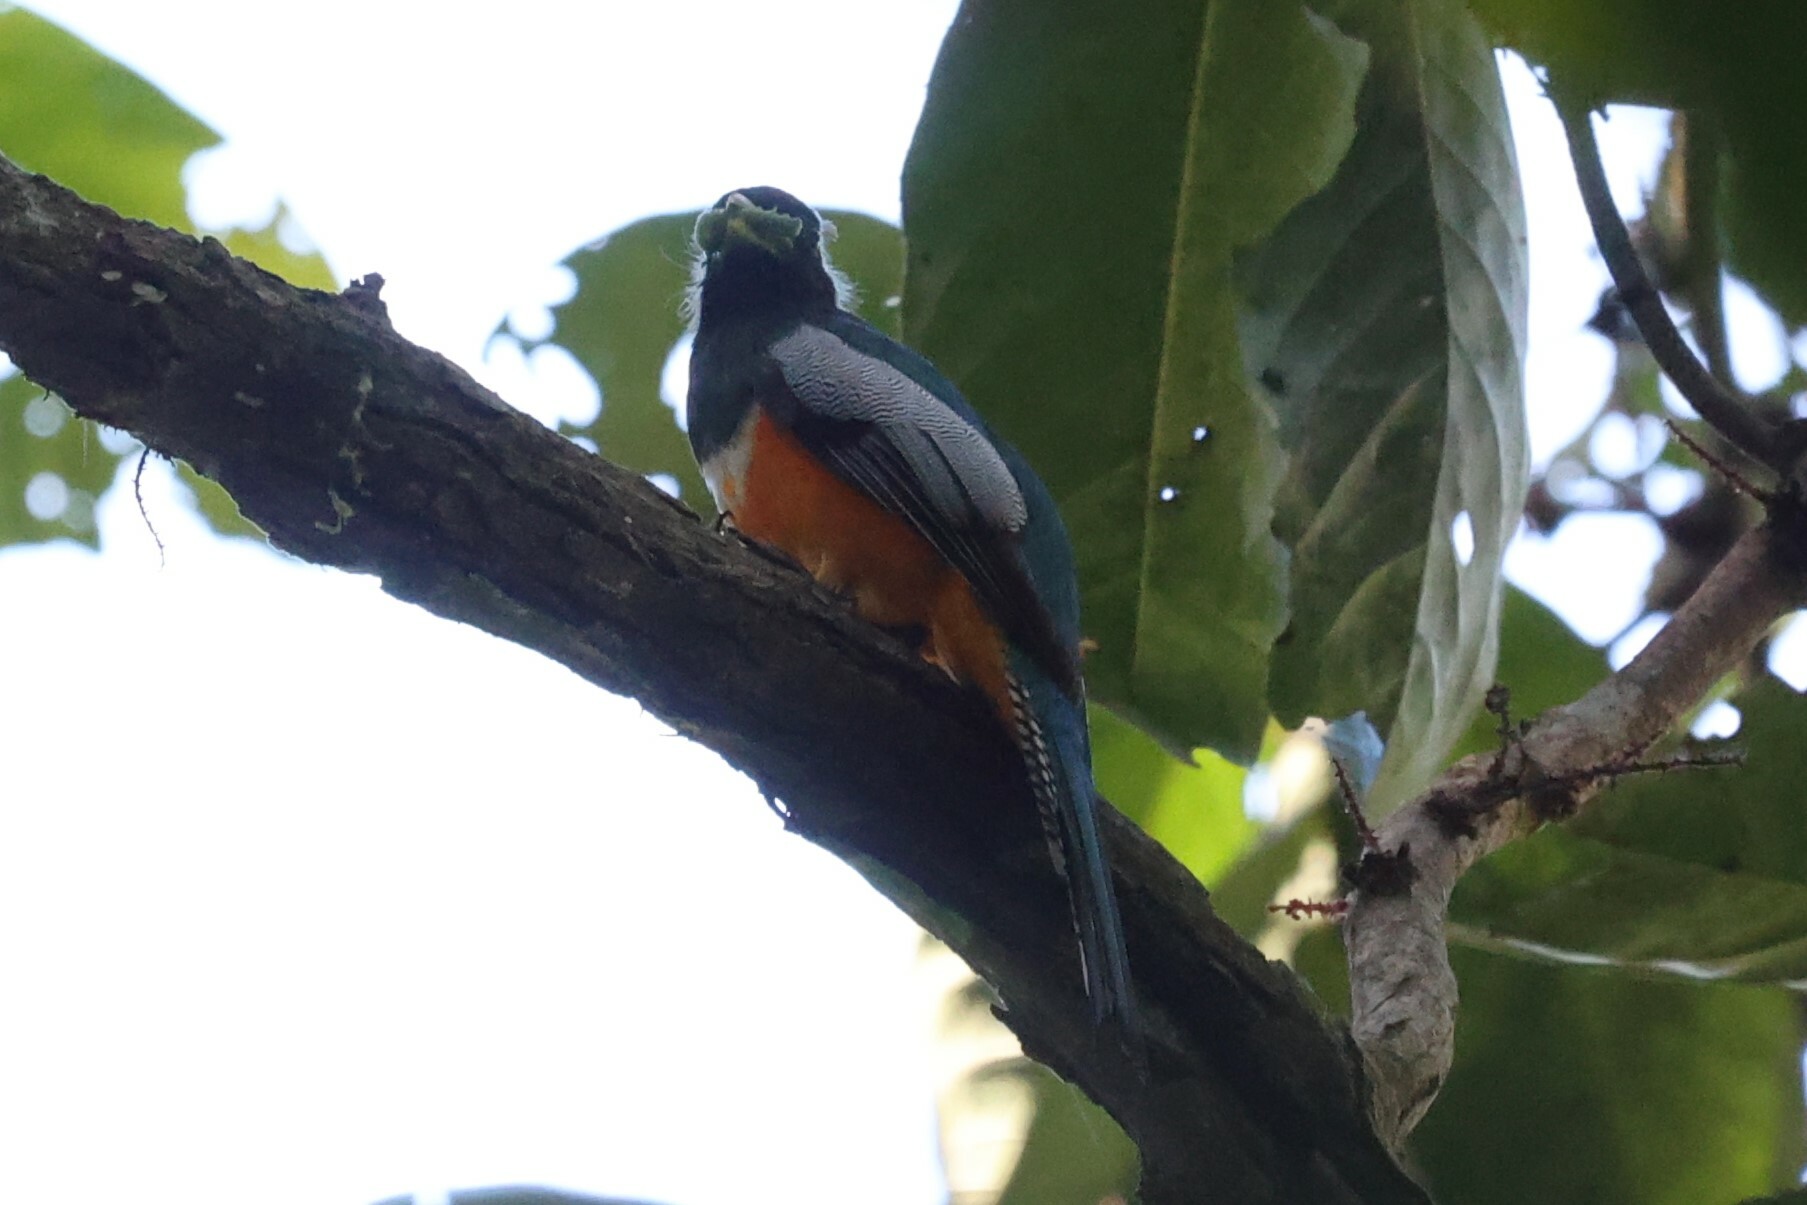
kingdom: Animalia
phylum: Chordata
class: Aves
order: Trogoniformes
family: Trogonidae
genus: Trogon
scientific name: Trogon collaris
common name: Collared trogon
